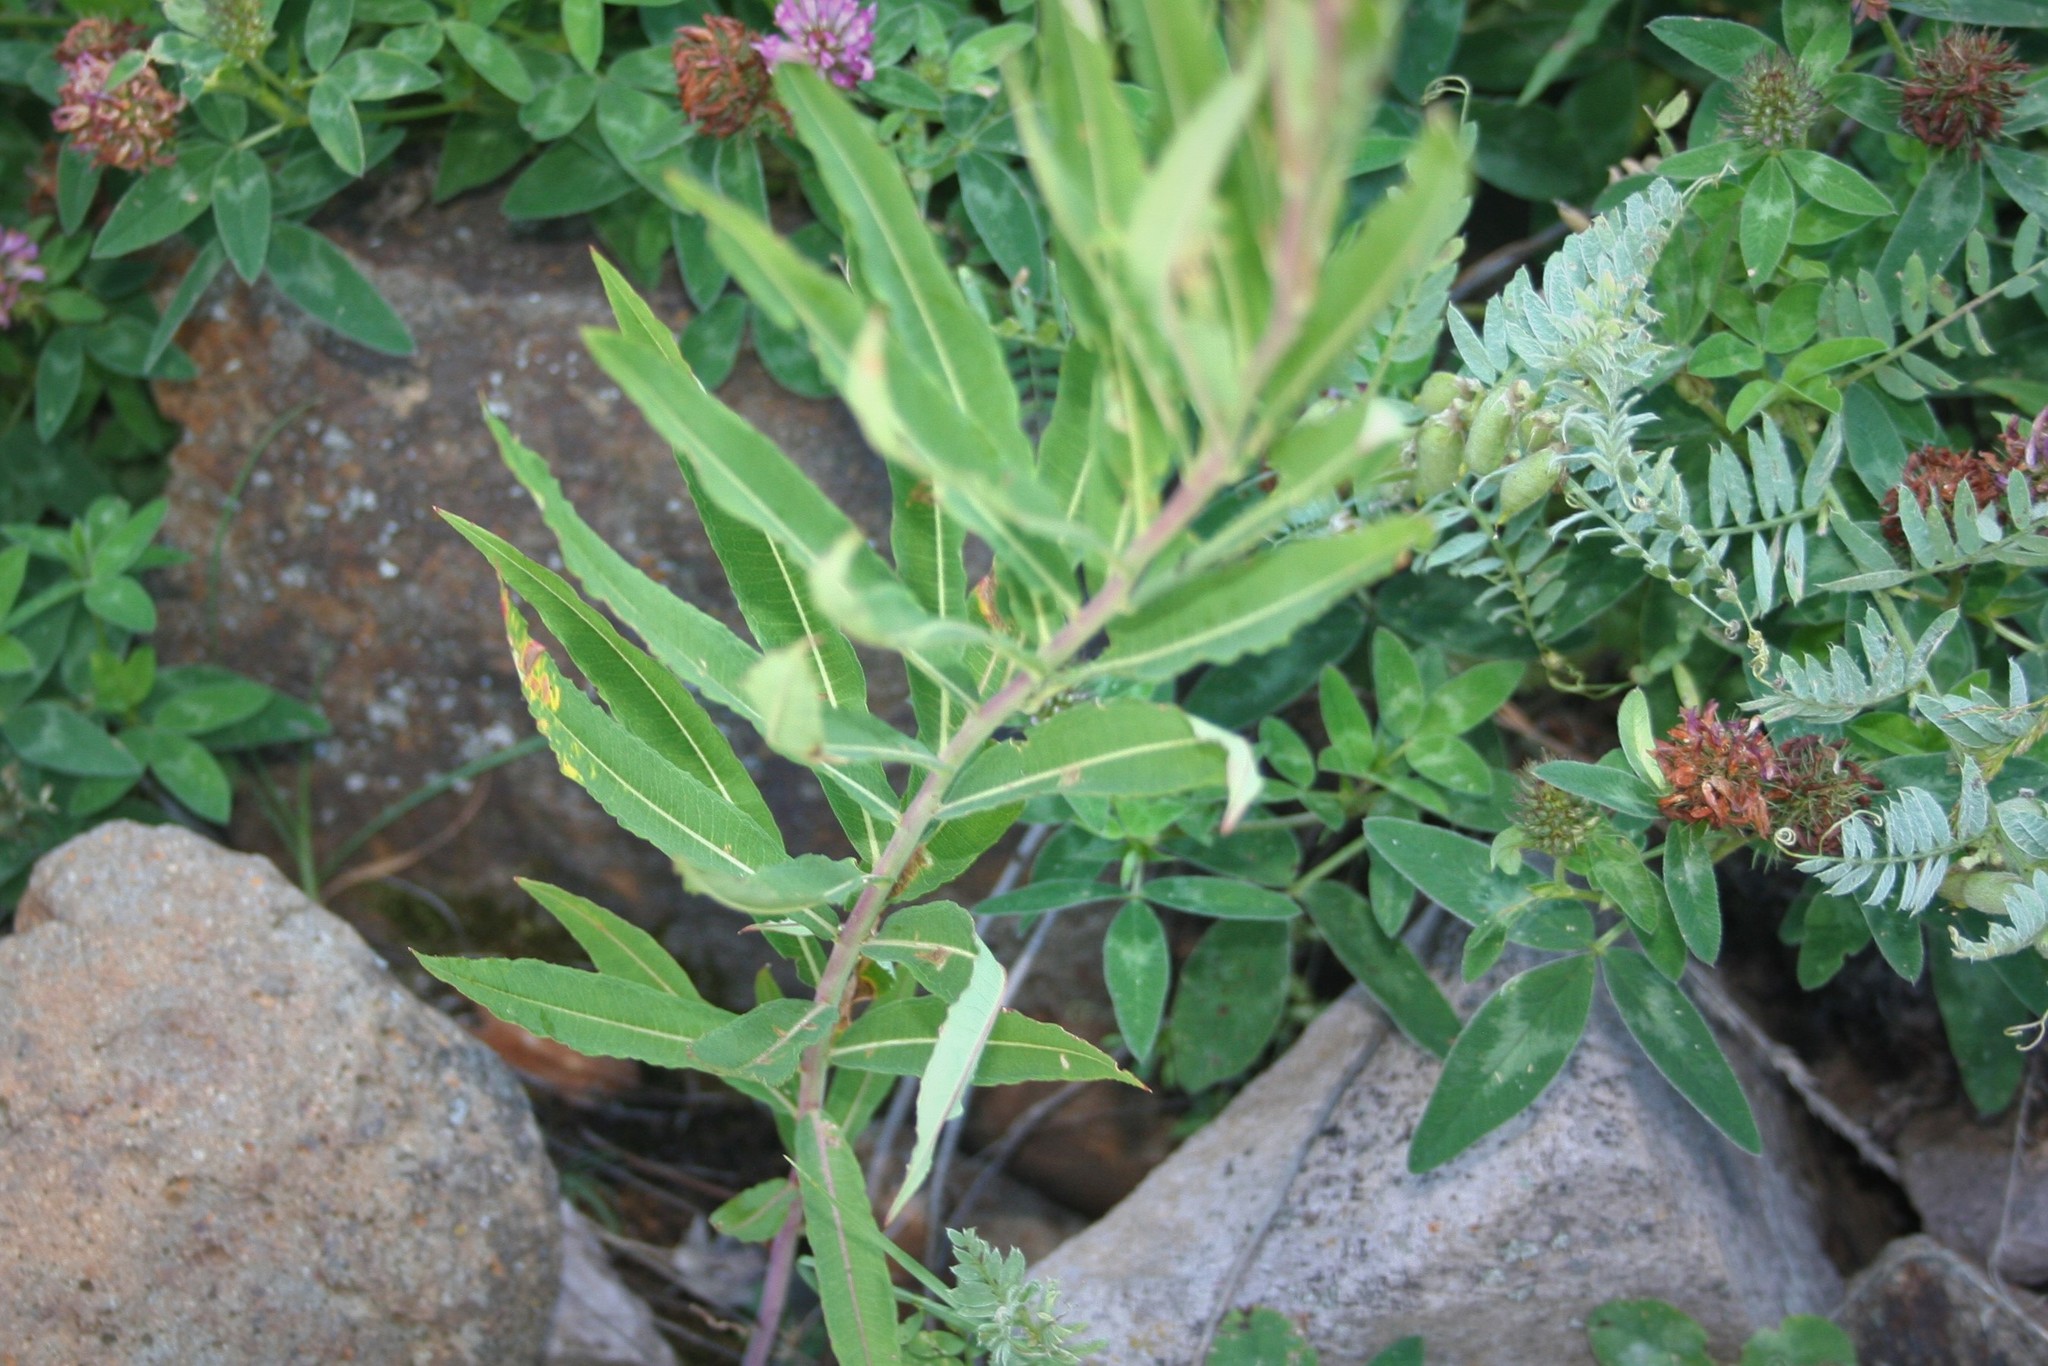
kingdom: Plantae
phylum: Tracheophyta
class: Magnoliopsida
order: Myrtales
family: Onagraceae
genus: Chamaenerion
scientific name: Chamaenerion angustifolium
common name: Fireweed
